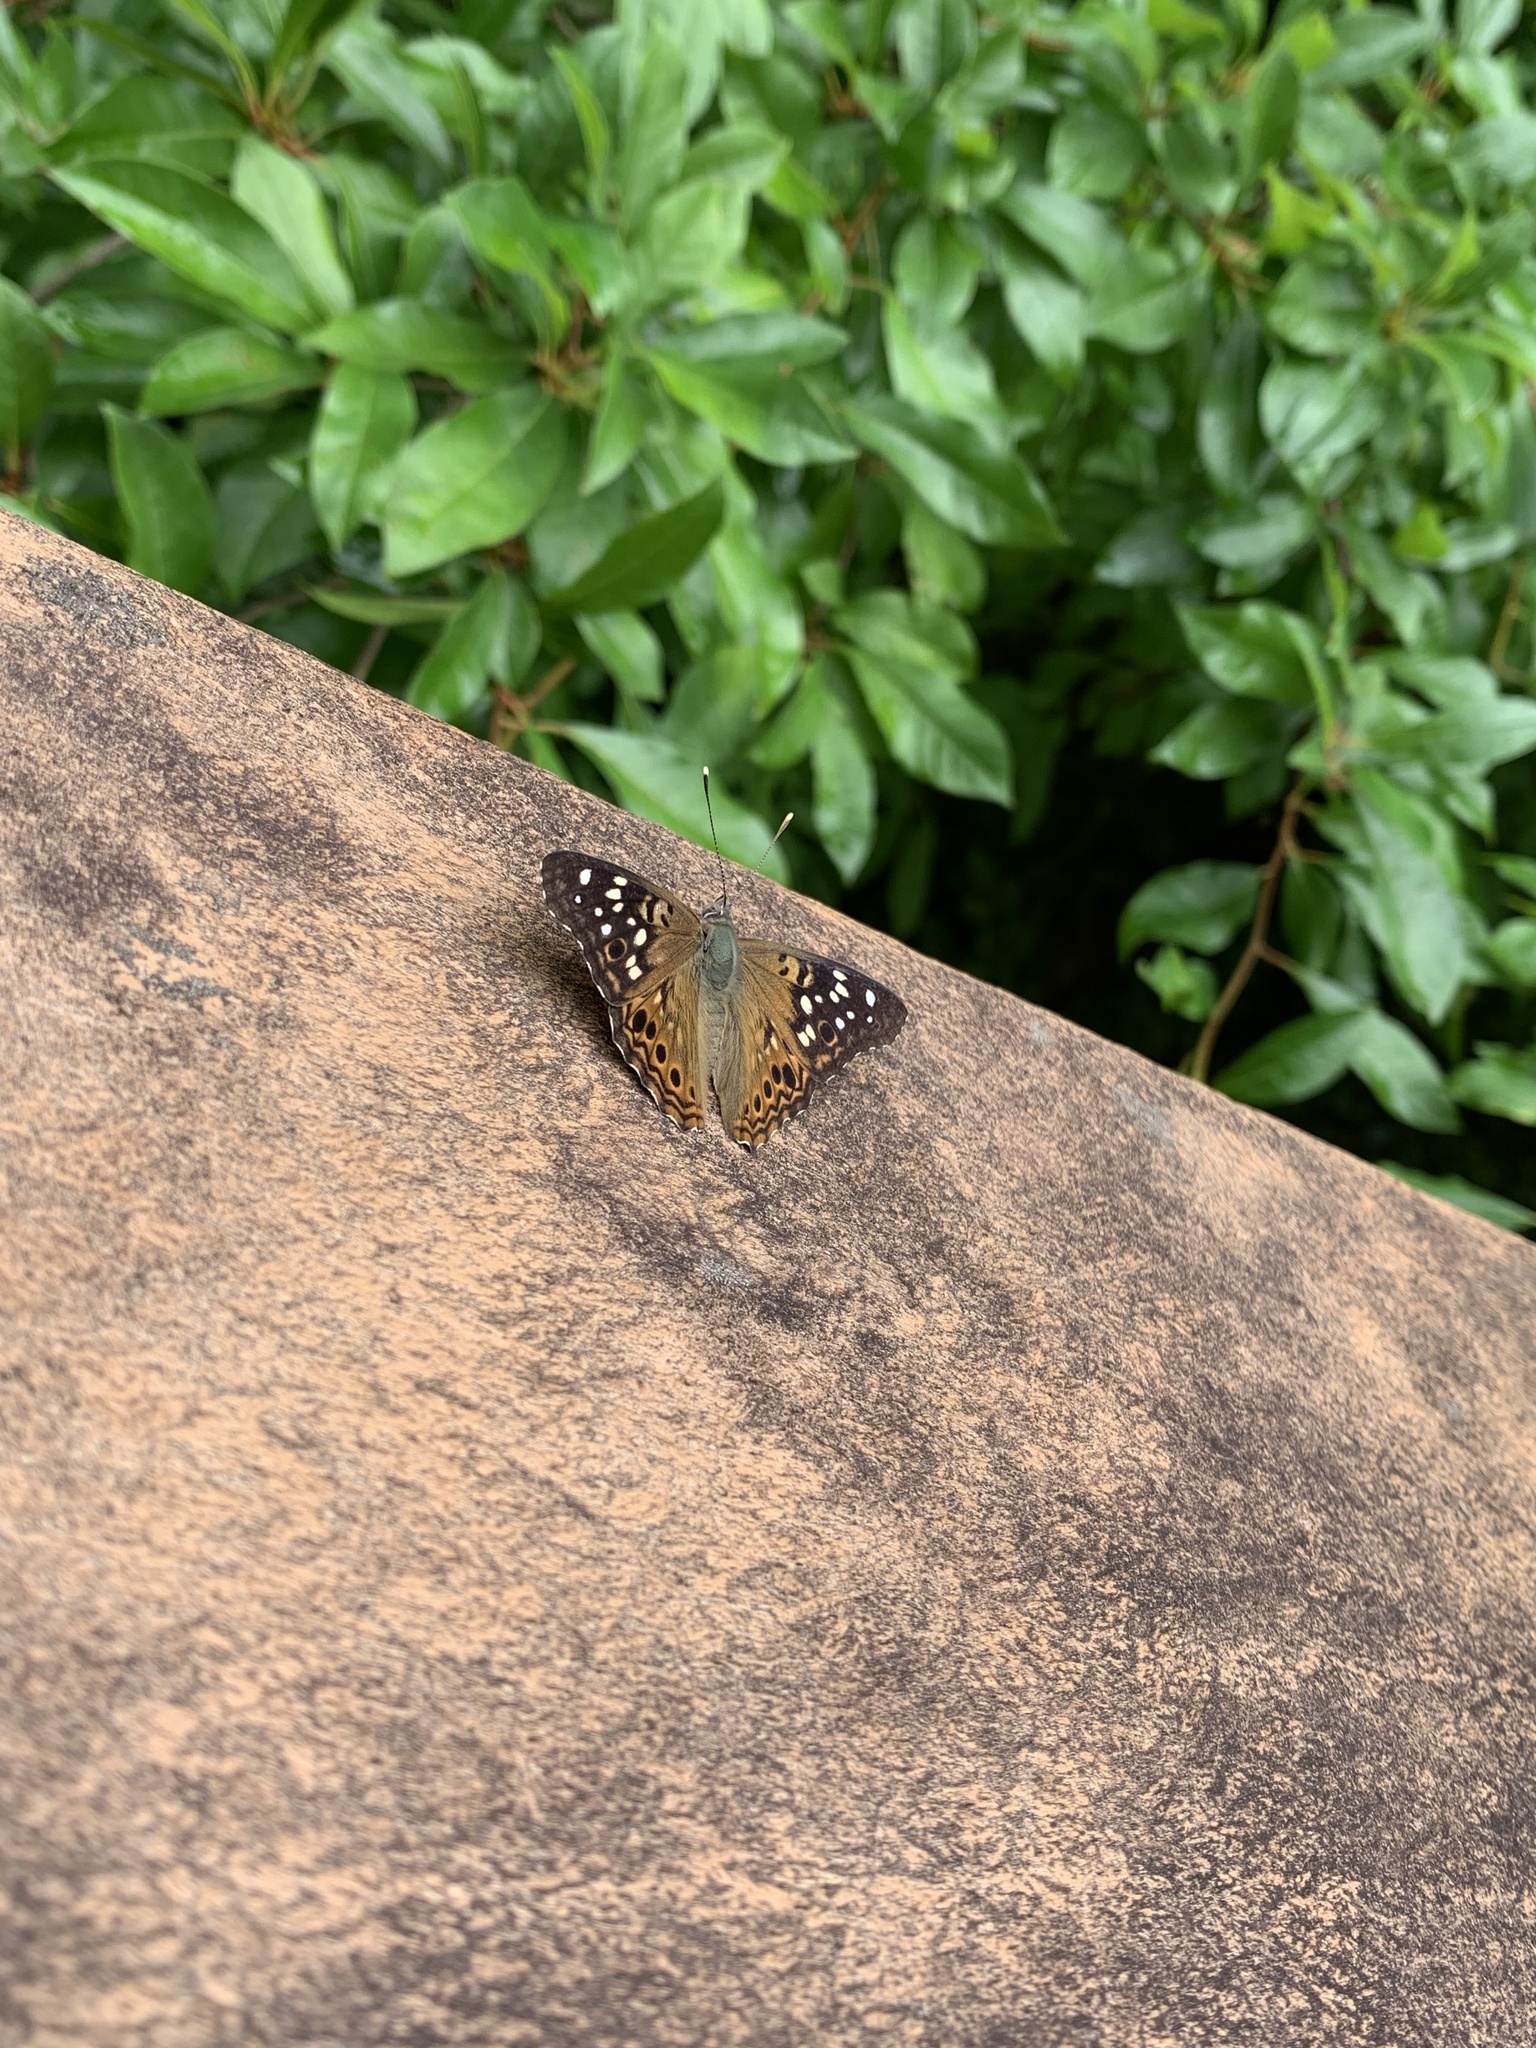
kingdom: Animalia
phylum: Arthropoda
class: Insecta
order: Lepidoptera
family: Nymphalidae
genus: Asterocampa
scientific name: Asterocampa celtis
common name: Hackberry emperor
